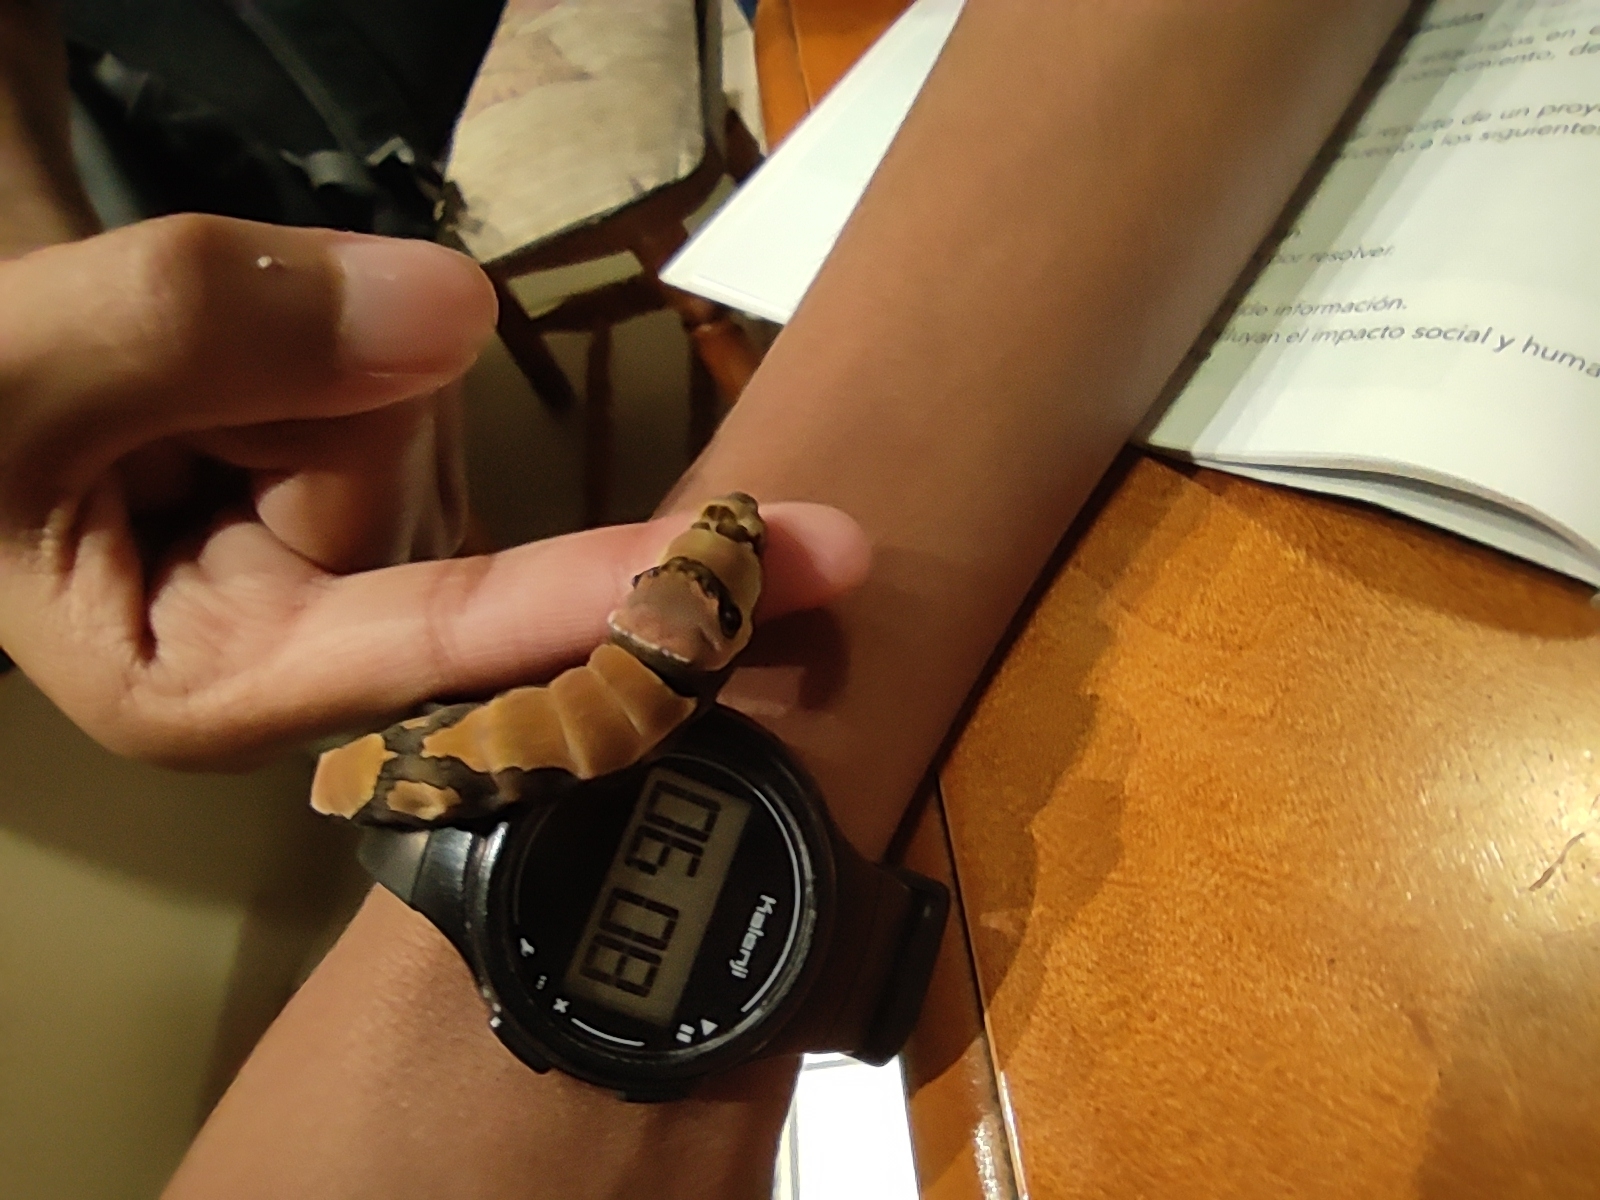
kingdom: Animalia
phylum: Arthropoda
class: Insecta
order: Lepidoptera
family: Papilionidae
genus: Papilio
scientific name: Papilio garamas
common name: Magnificent swallowtail
